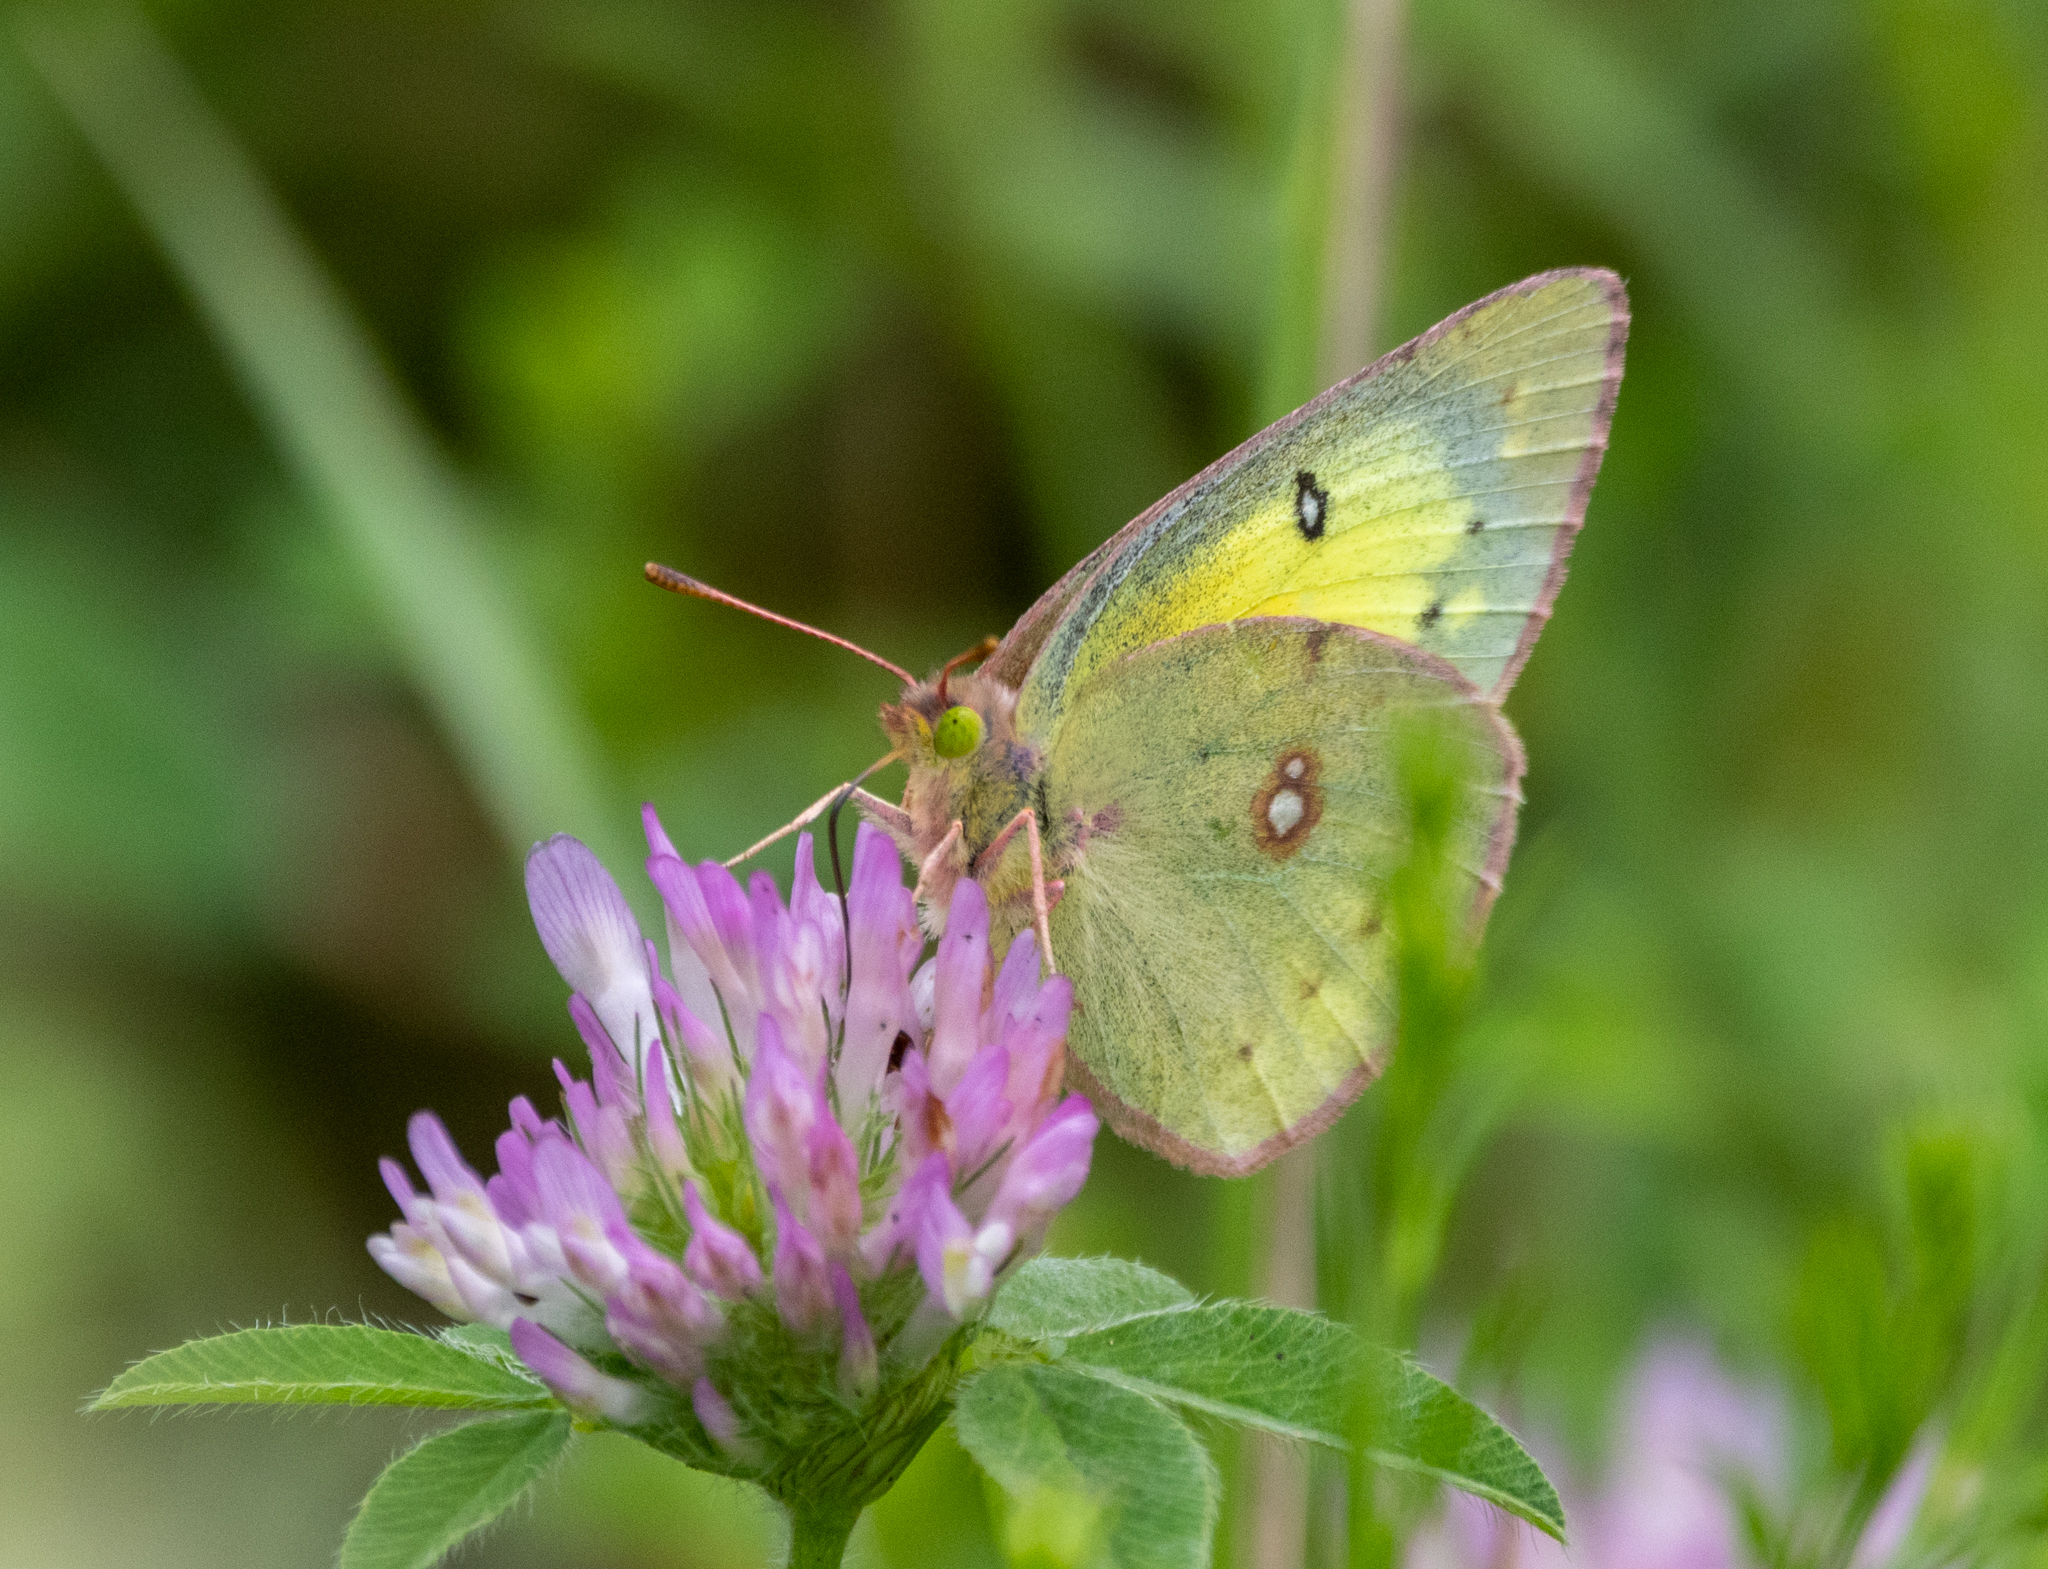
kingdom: Animalia
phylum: Arthropoda
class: Insecta
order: Lepidoptera
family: Pieridae
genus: Colias
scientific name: Colias philodice
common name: Clouded sulphur
